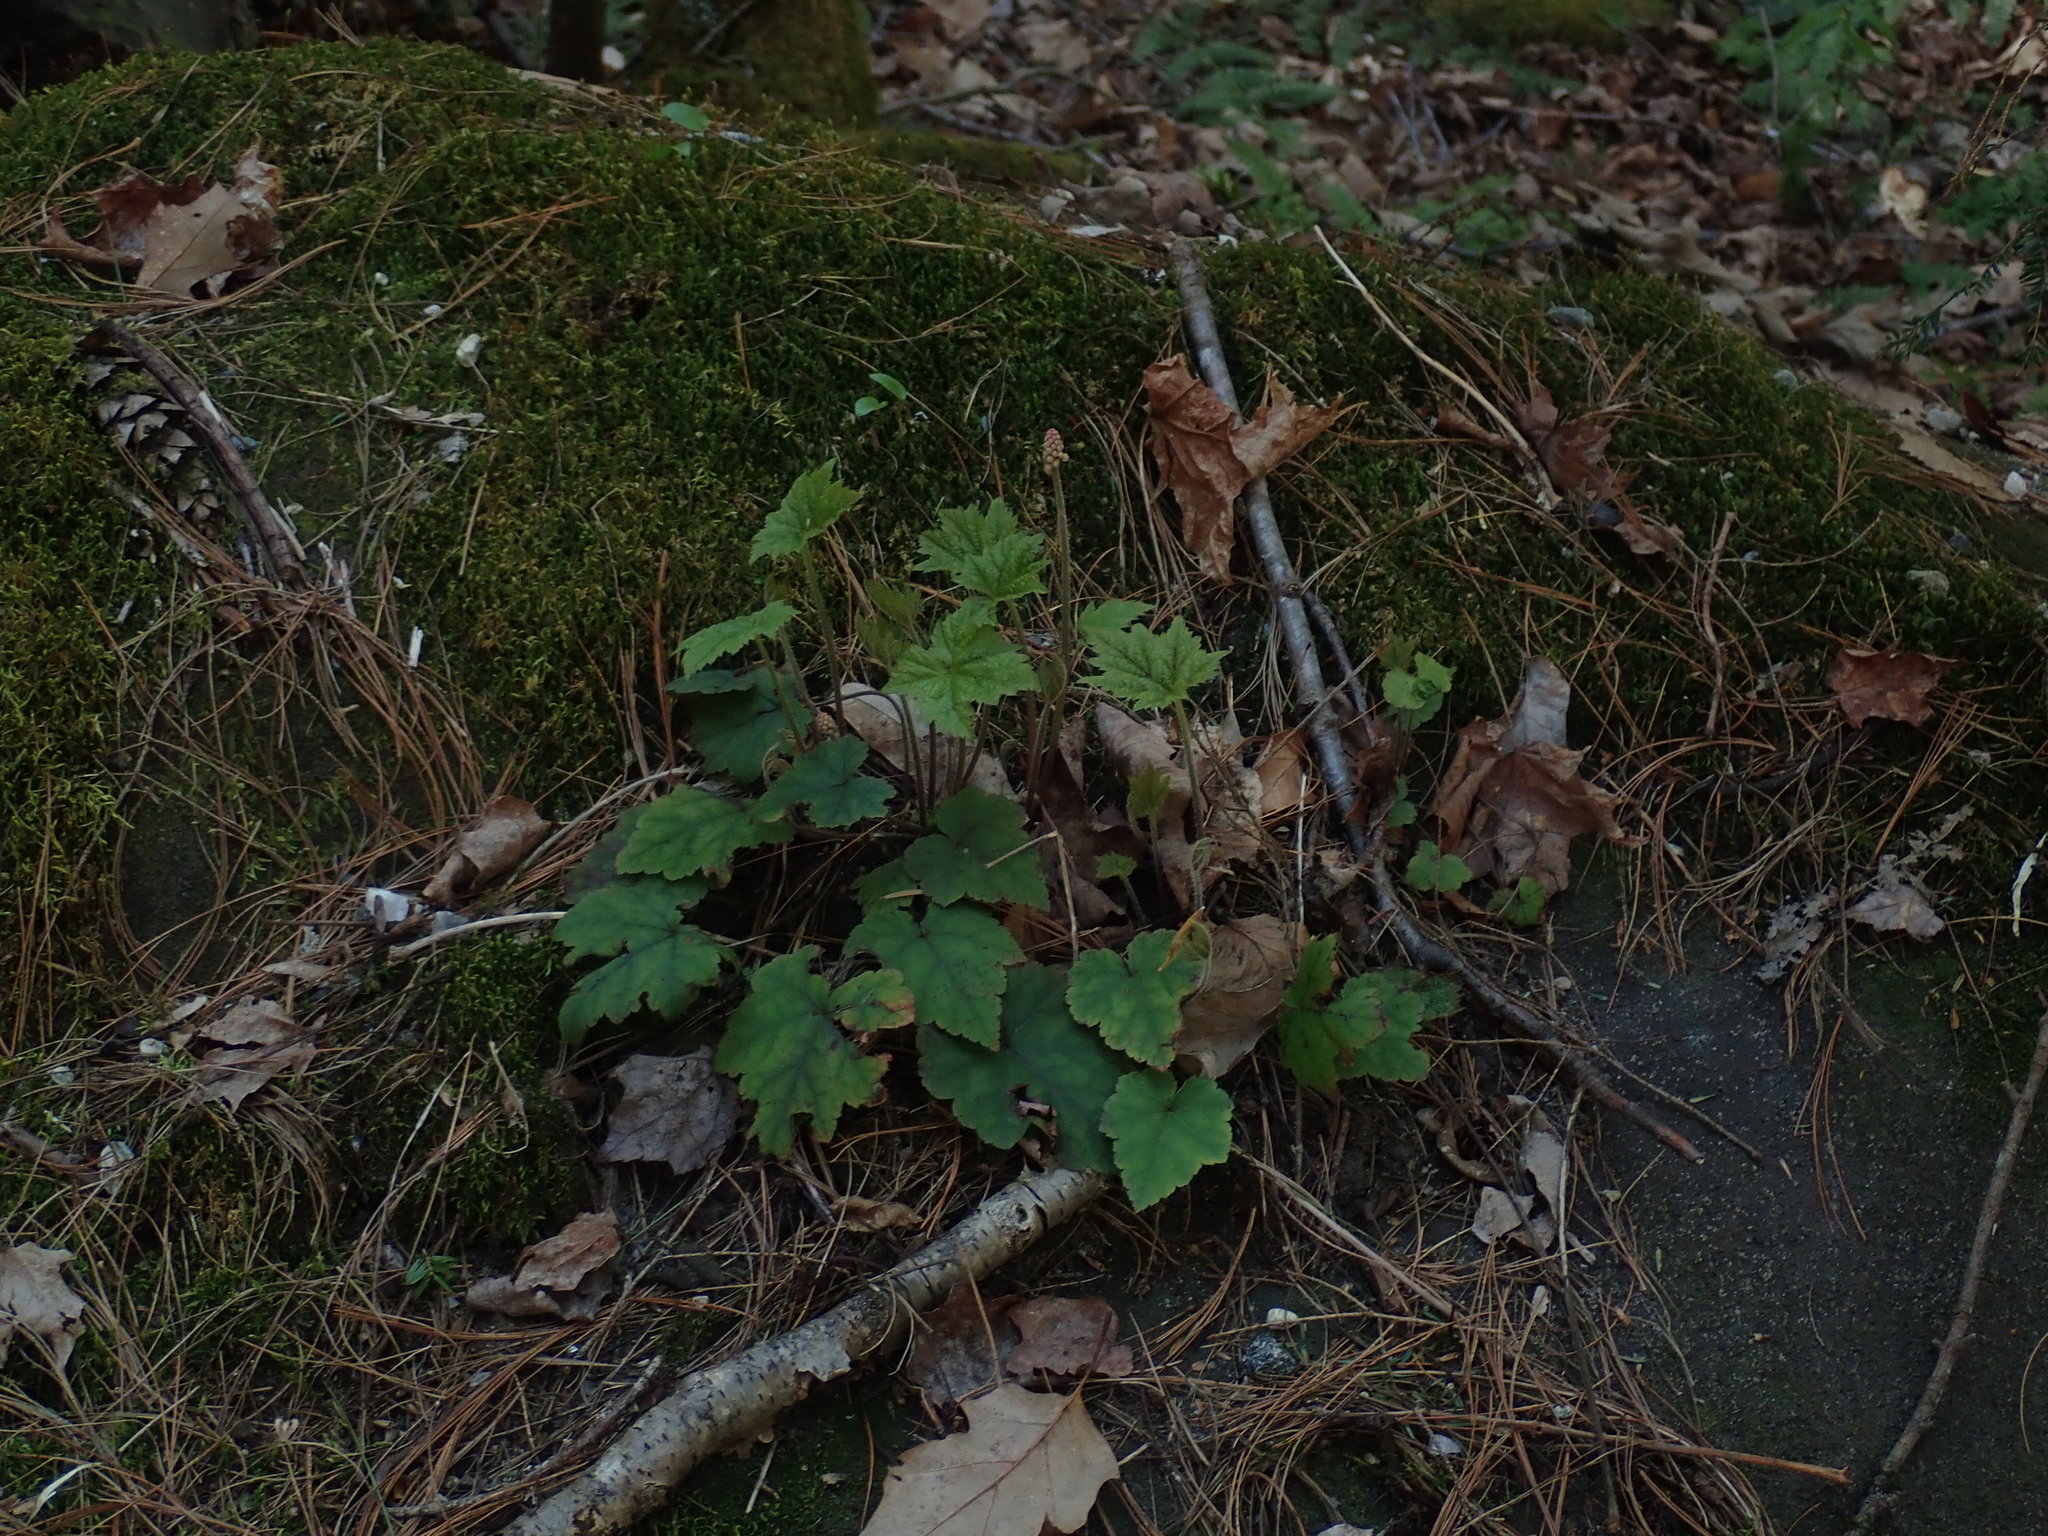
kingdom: Plantae
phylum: Tracheophyta
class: Magnoliopsida
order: Saxifragales
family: Saxifragaceae
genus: Tiarella
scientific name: Tiarella stolonifera
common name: Stoloniferous foamflower
